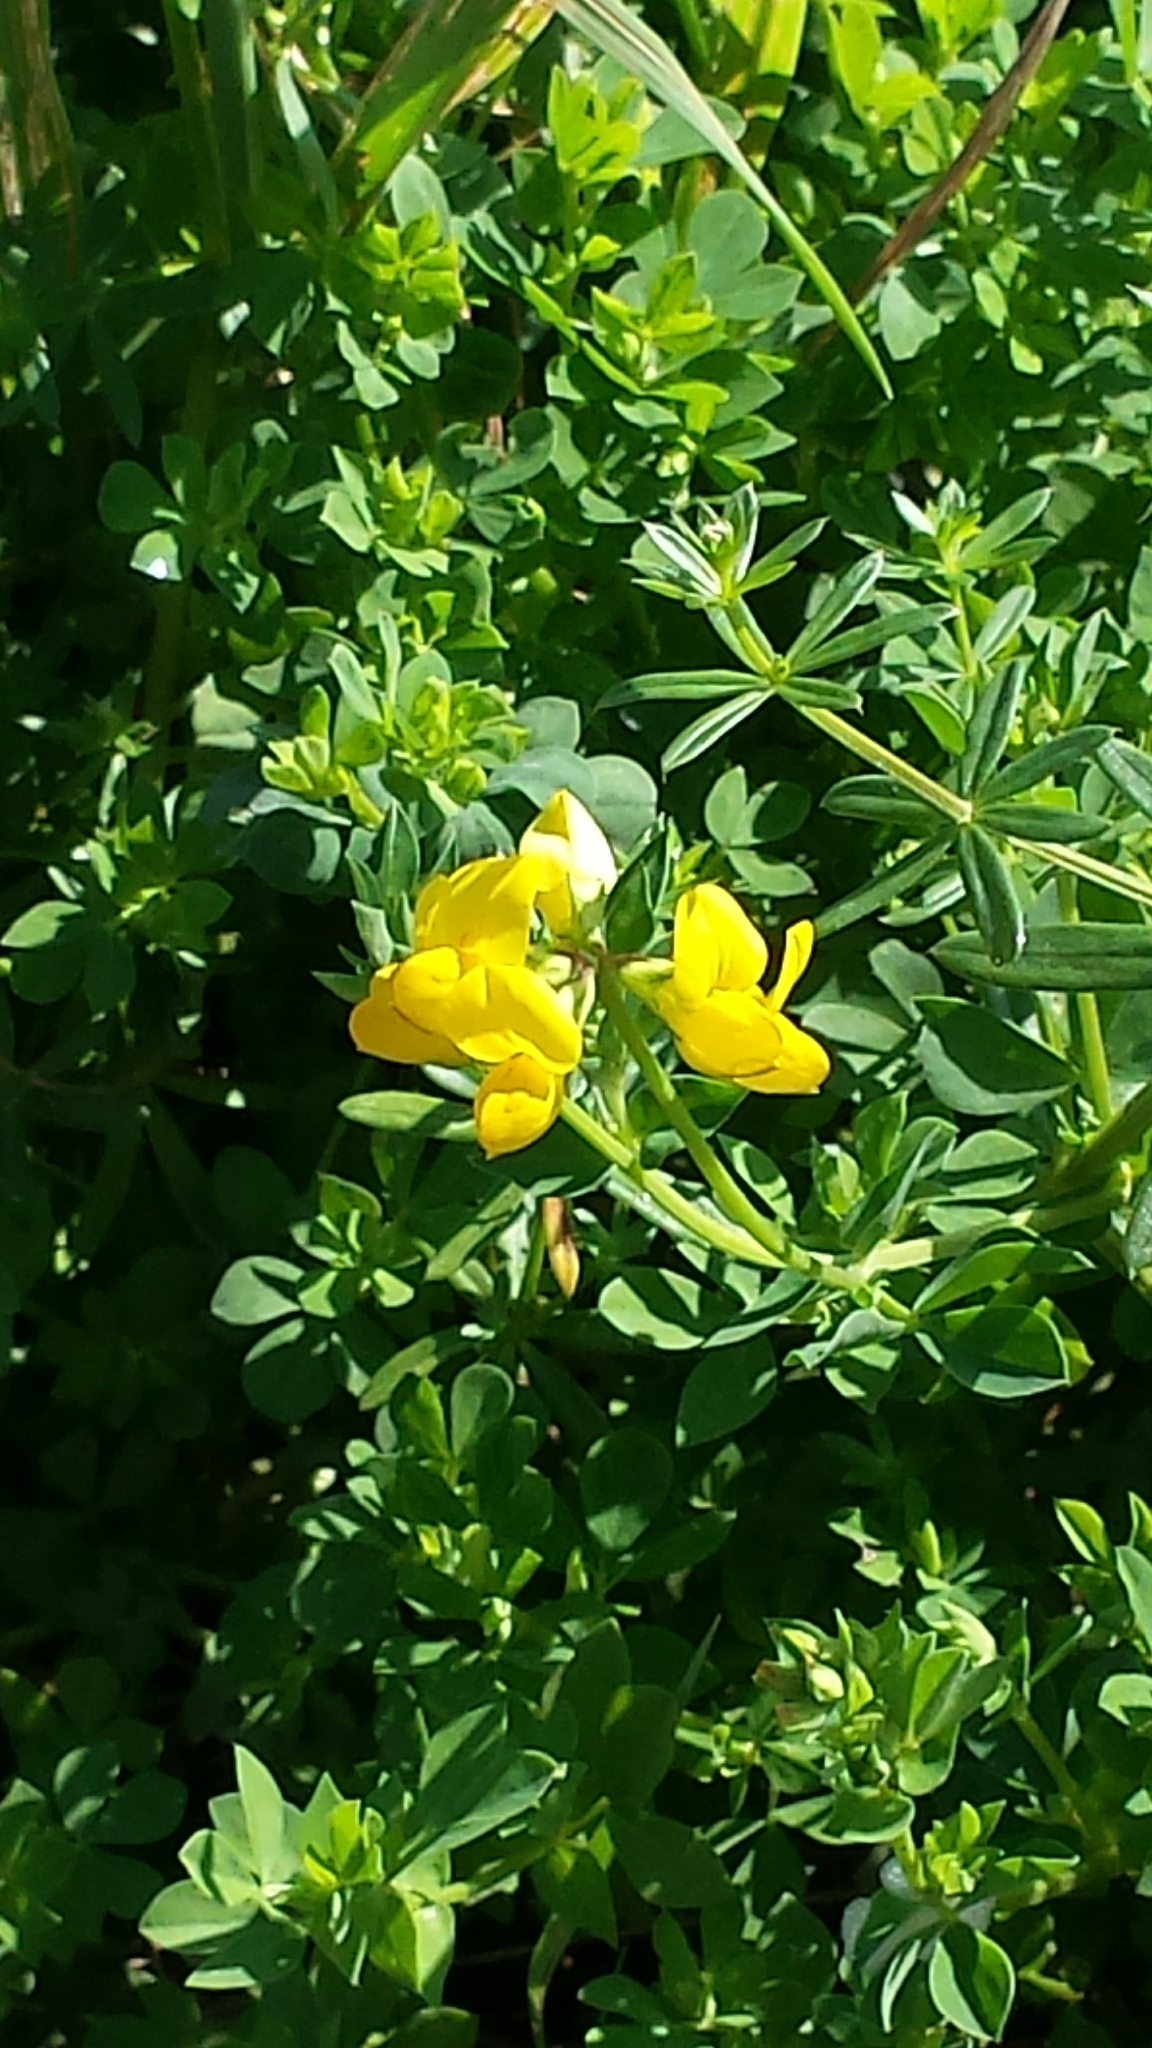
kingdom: Plantae
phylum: Tracheophyta
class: Magnoliopsida
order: Fabales
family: Fabaceae
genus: Lotus
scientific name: Lotus corniculatus
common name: Common bird's-foot-trefoil
